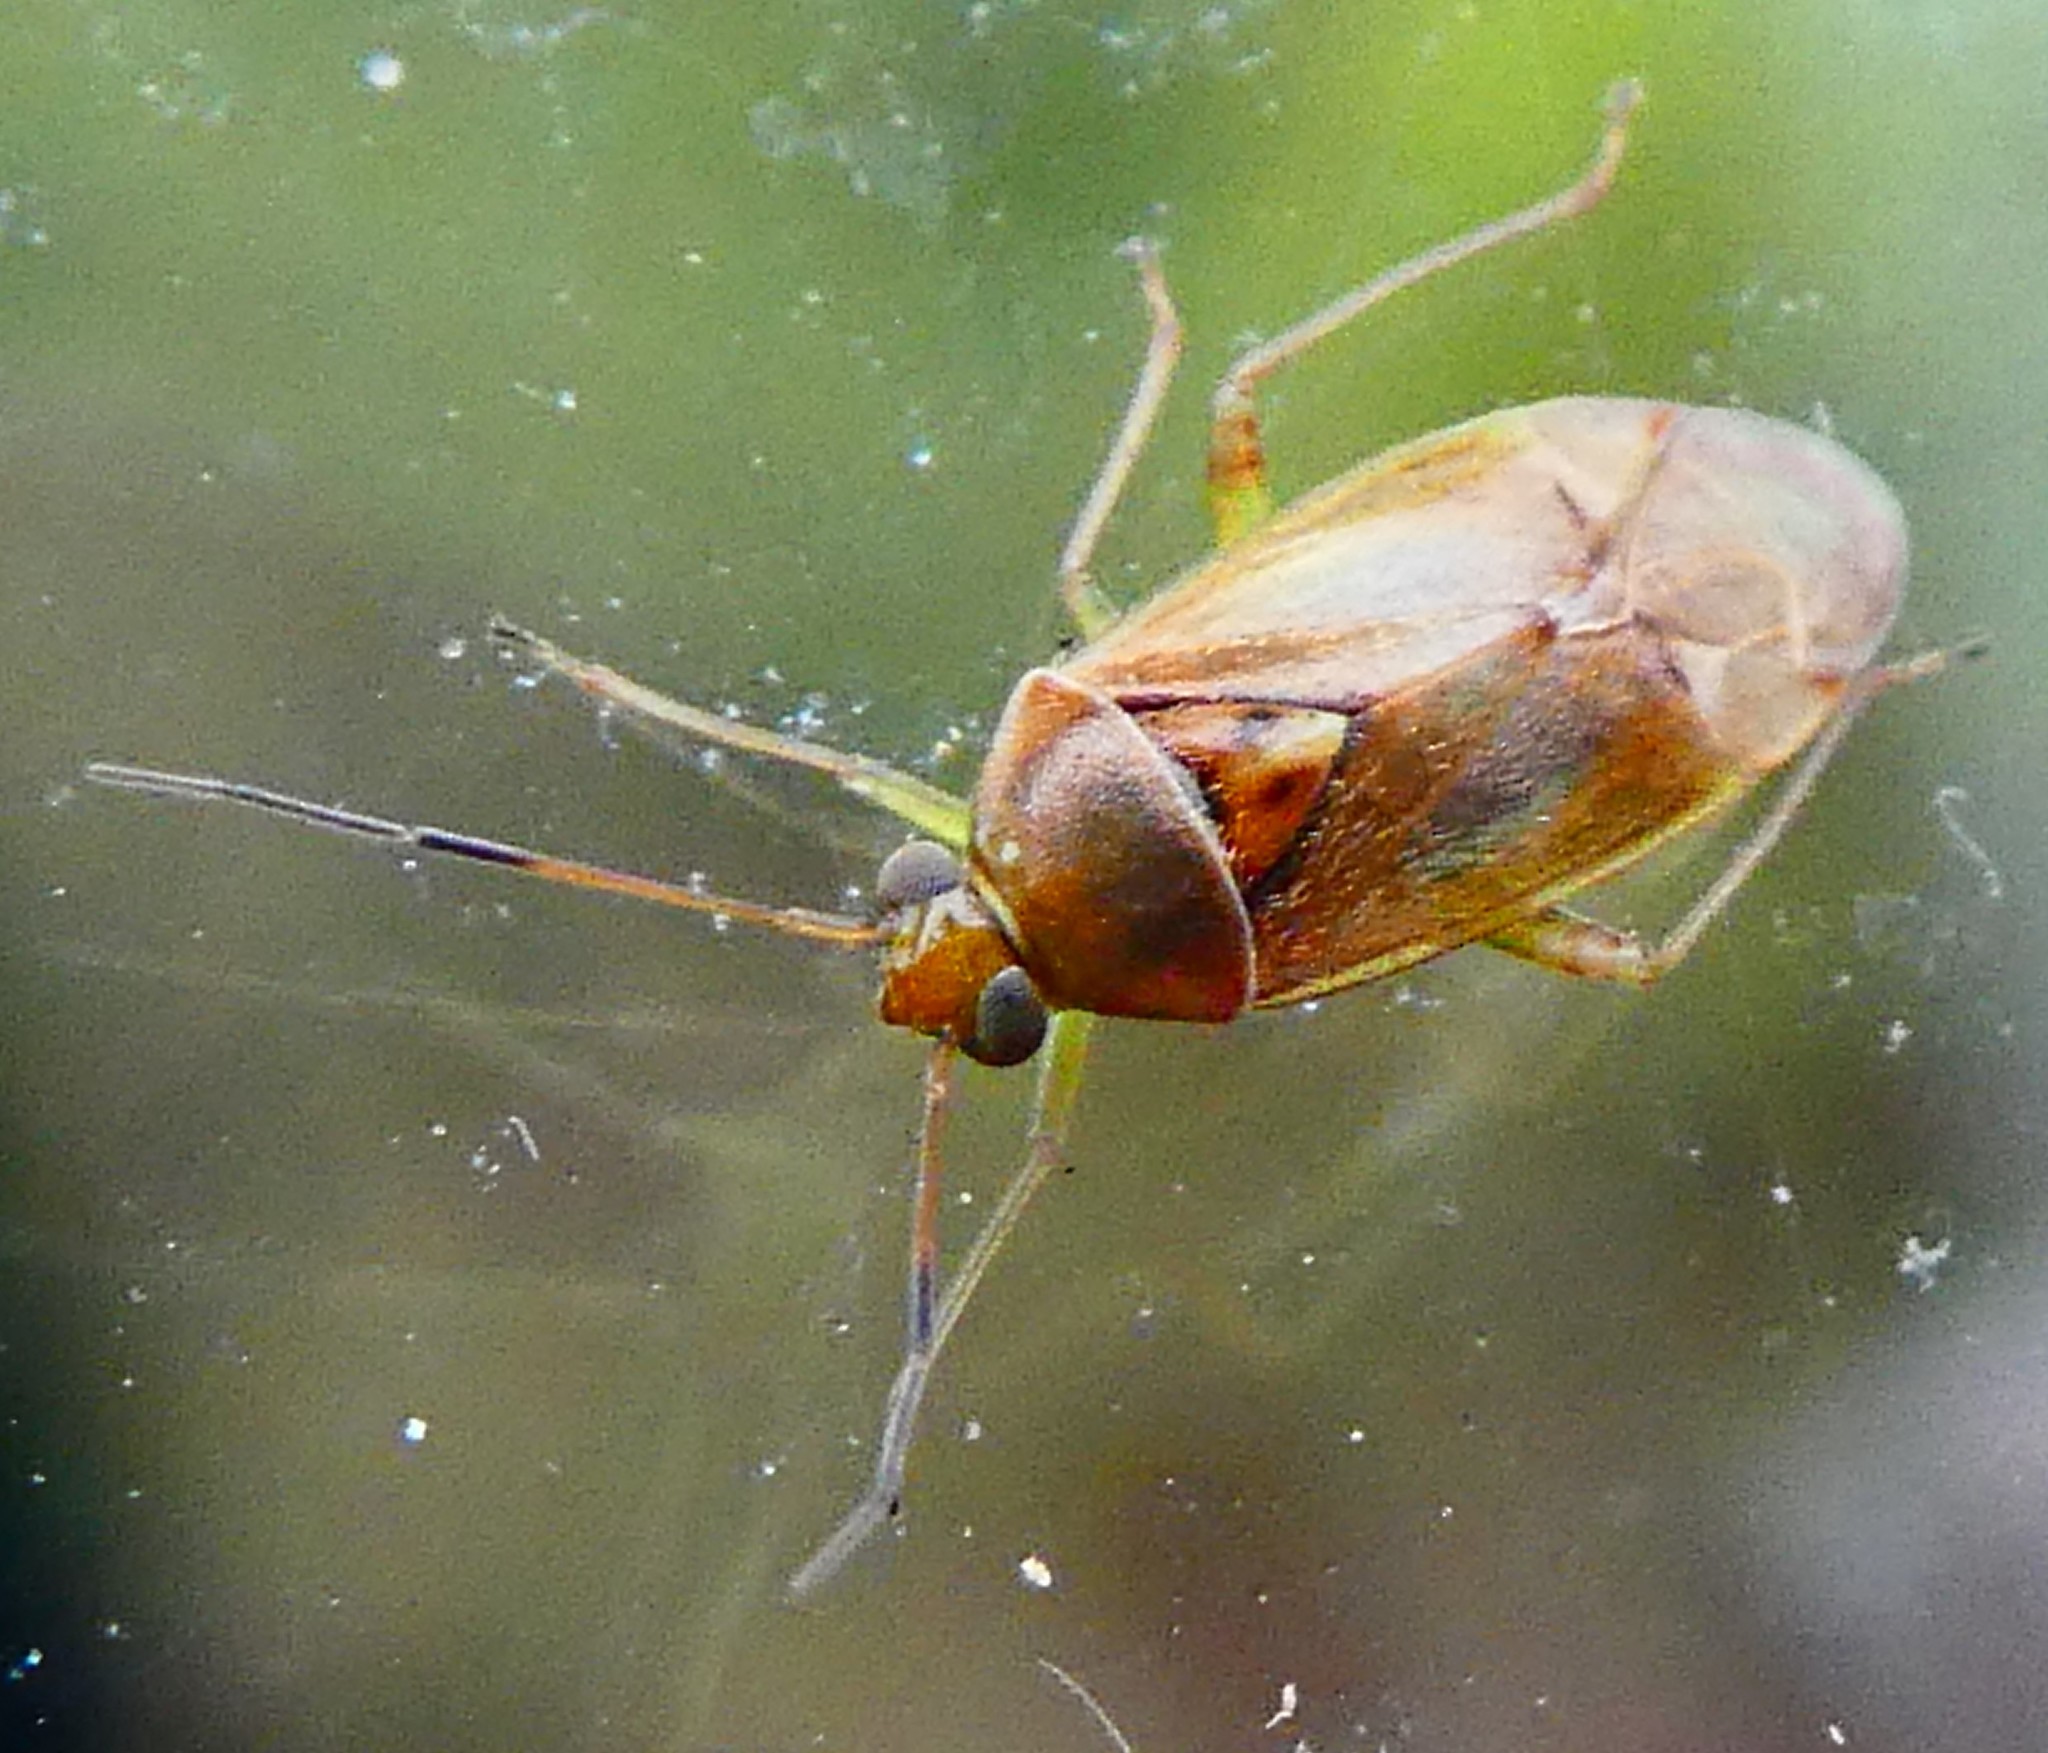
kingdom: Animalia
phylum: Arthropoda
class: Insecta
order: Hemiptera
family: Miridae
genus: Pinalitus
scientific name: Pinalitus cervinus
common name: Plant bug
